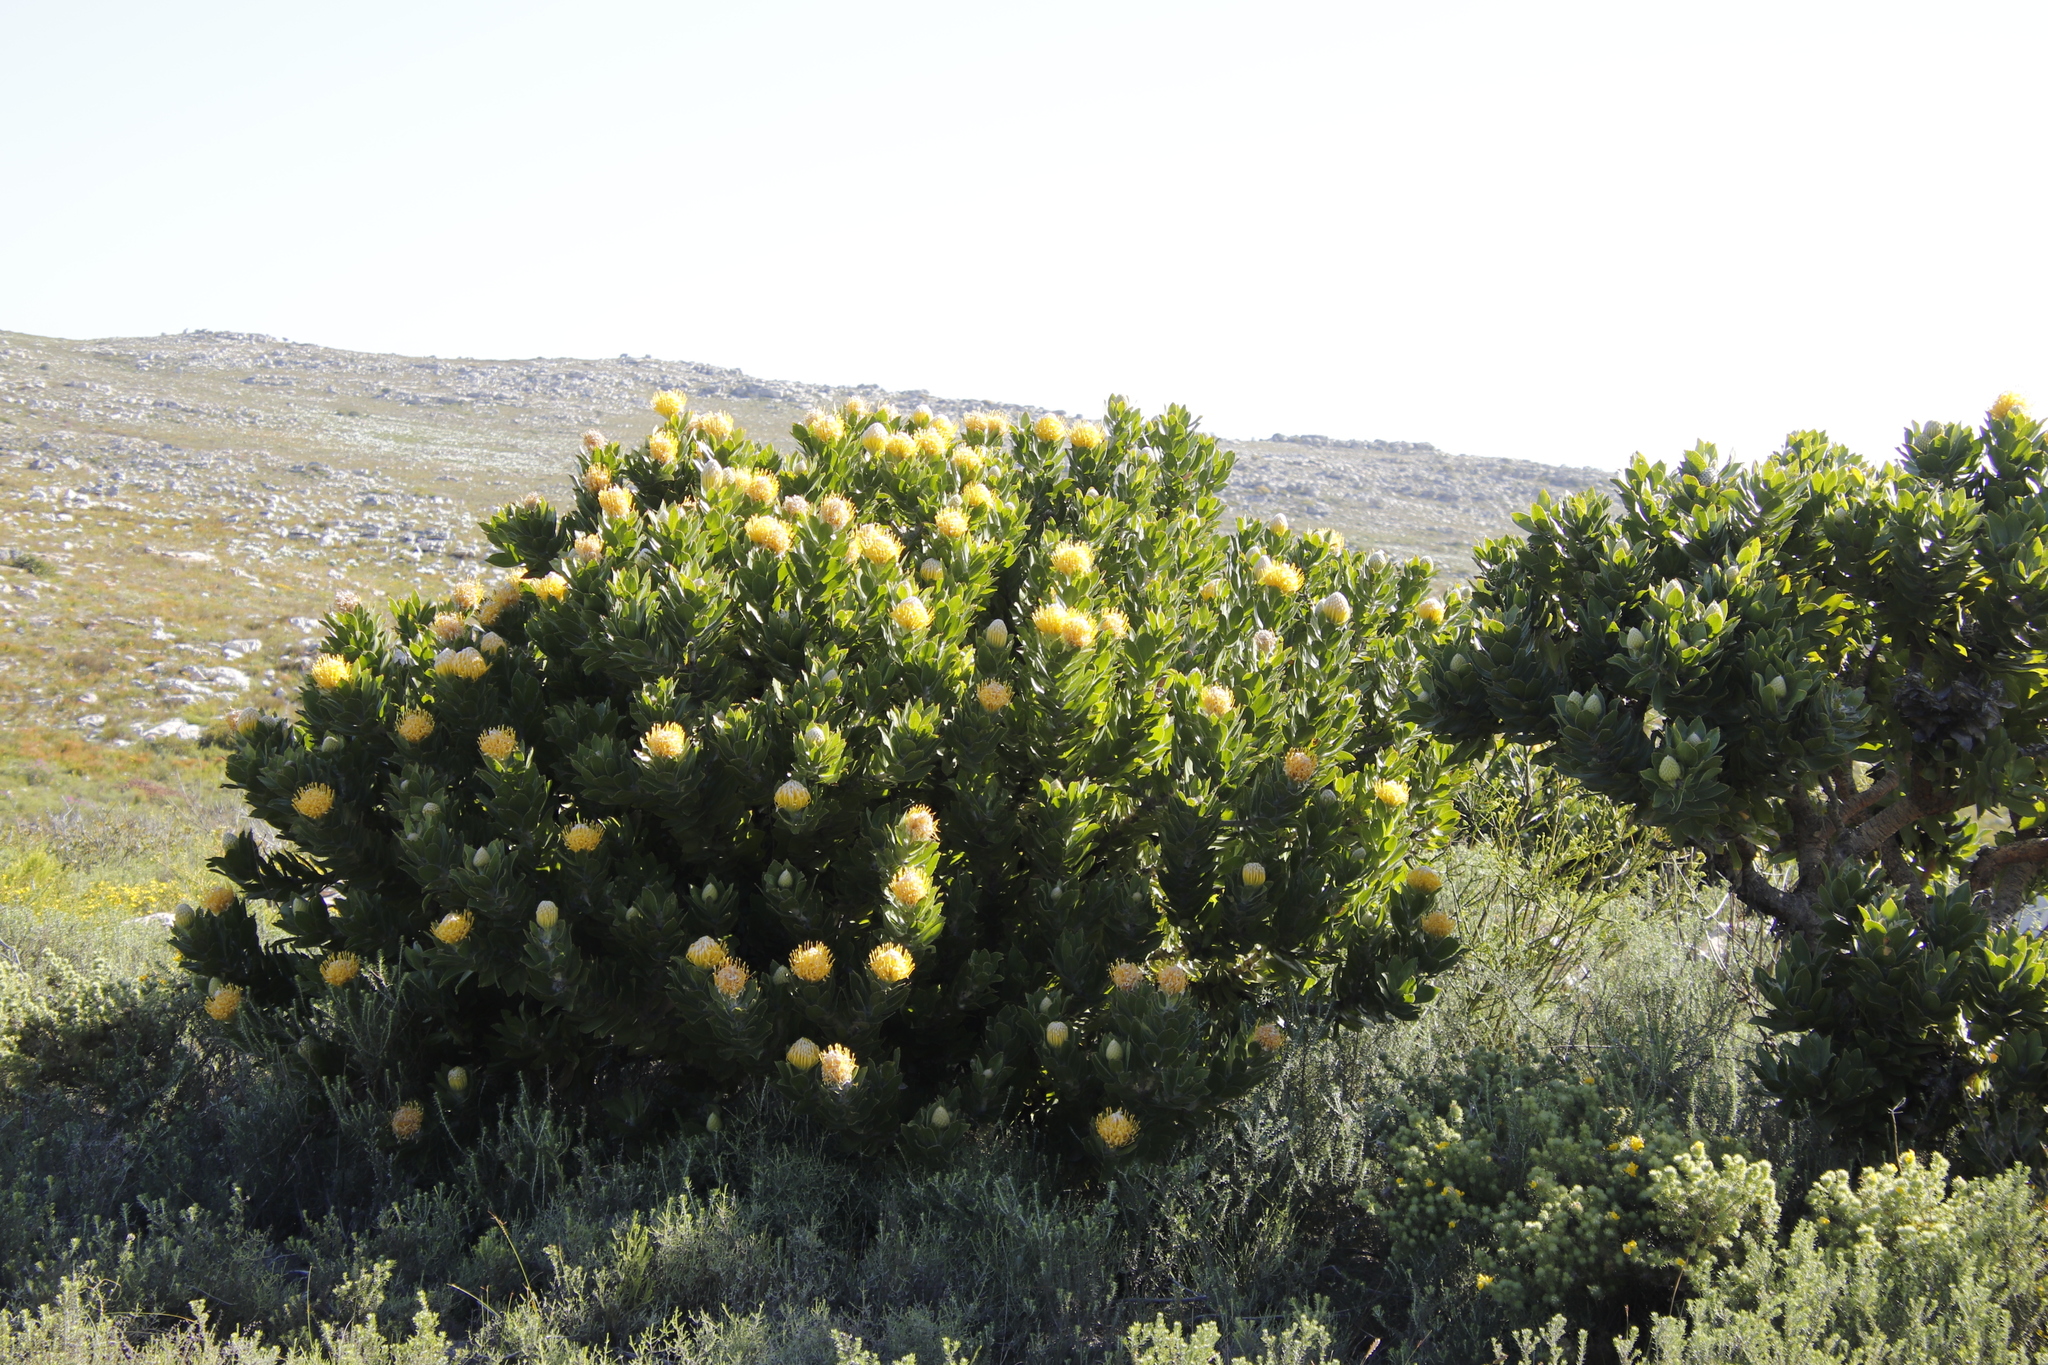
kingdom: Plantae
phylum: Tracheophyta
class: Magnoliopsida
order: Proteales
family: Proteaceae
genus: Leucospermum
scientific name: Leucospermum conocarpodendron
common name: Tree pincushion
